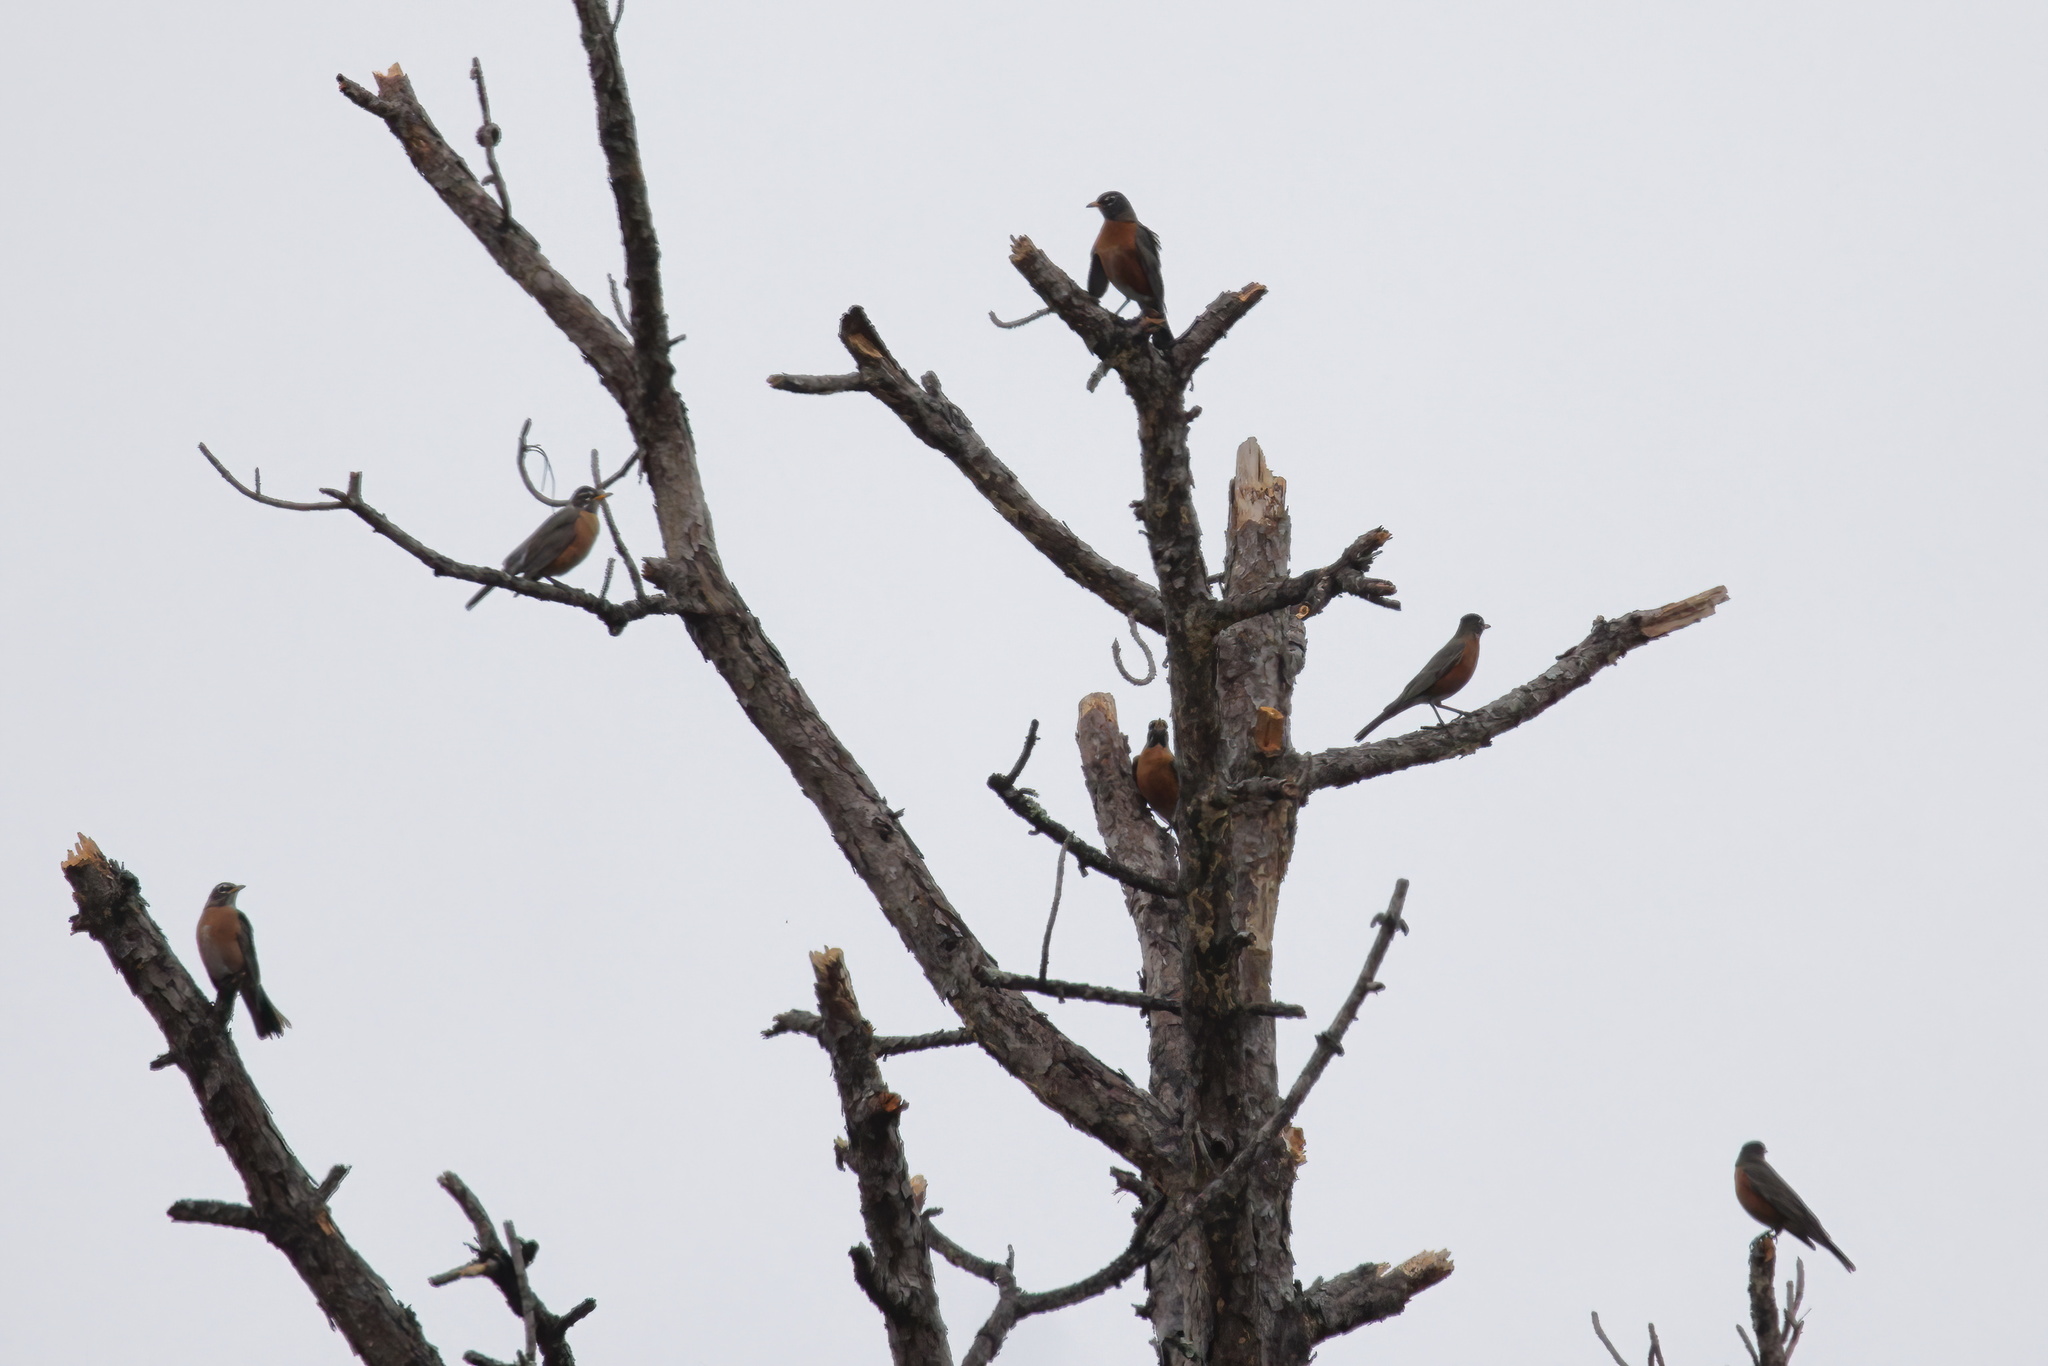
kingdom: Animalia
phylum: Chordata
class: Aves
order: Passeriformes
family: Turdidae
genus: Turdus
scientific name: Turdus migratorius
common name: American robin
